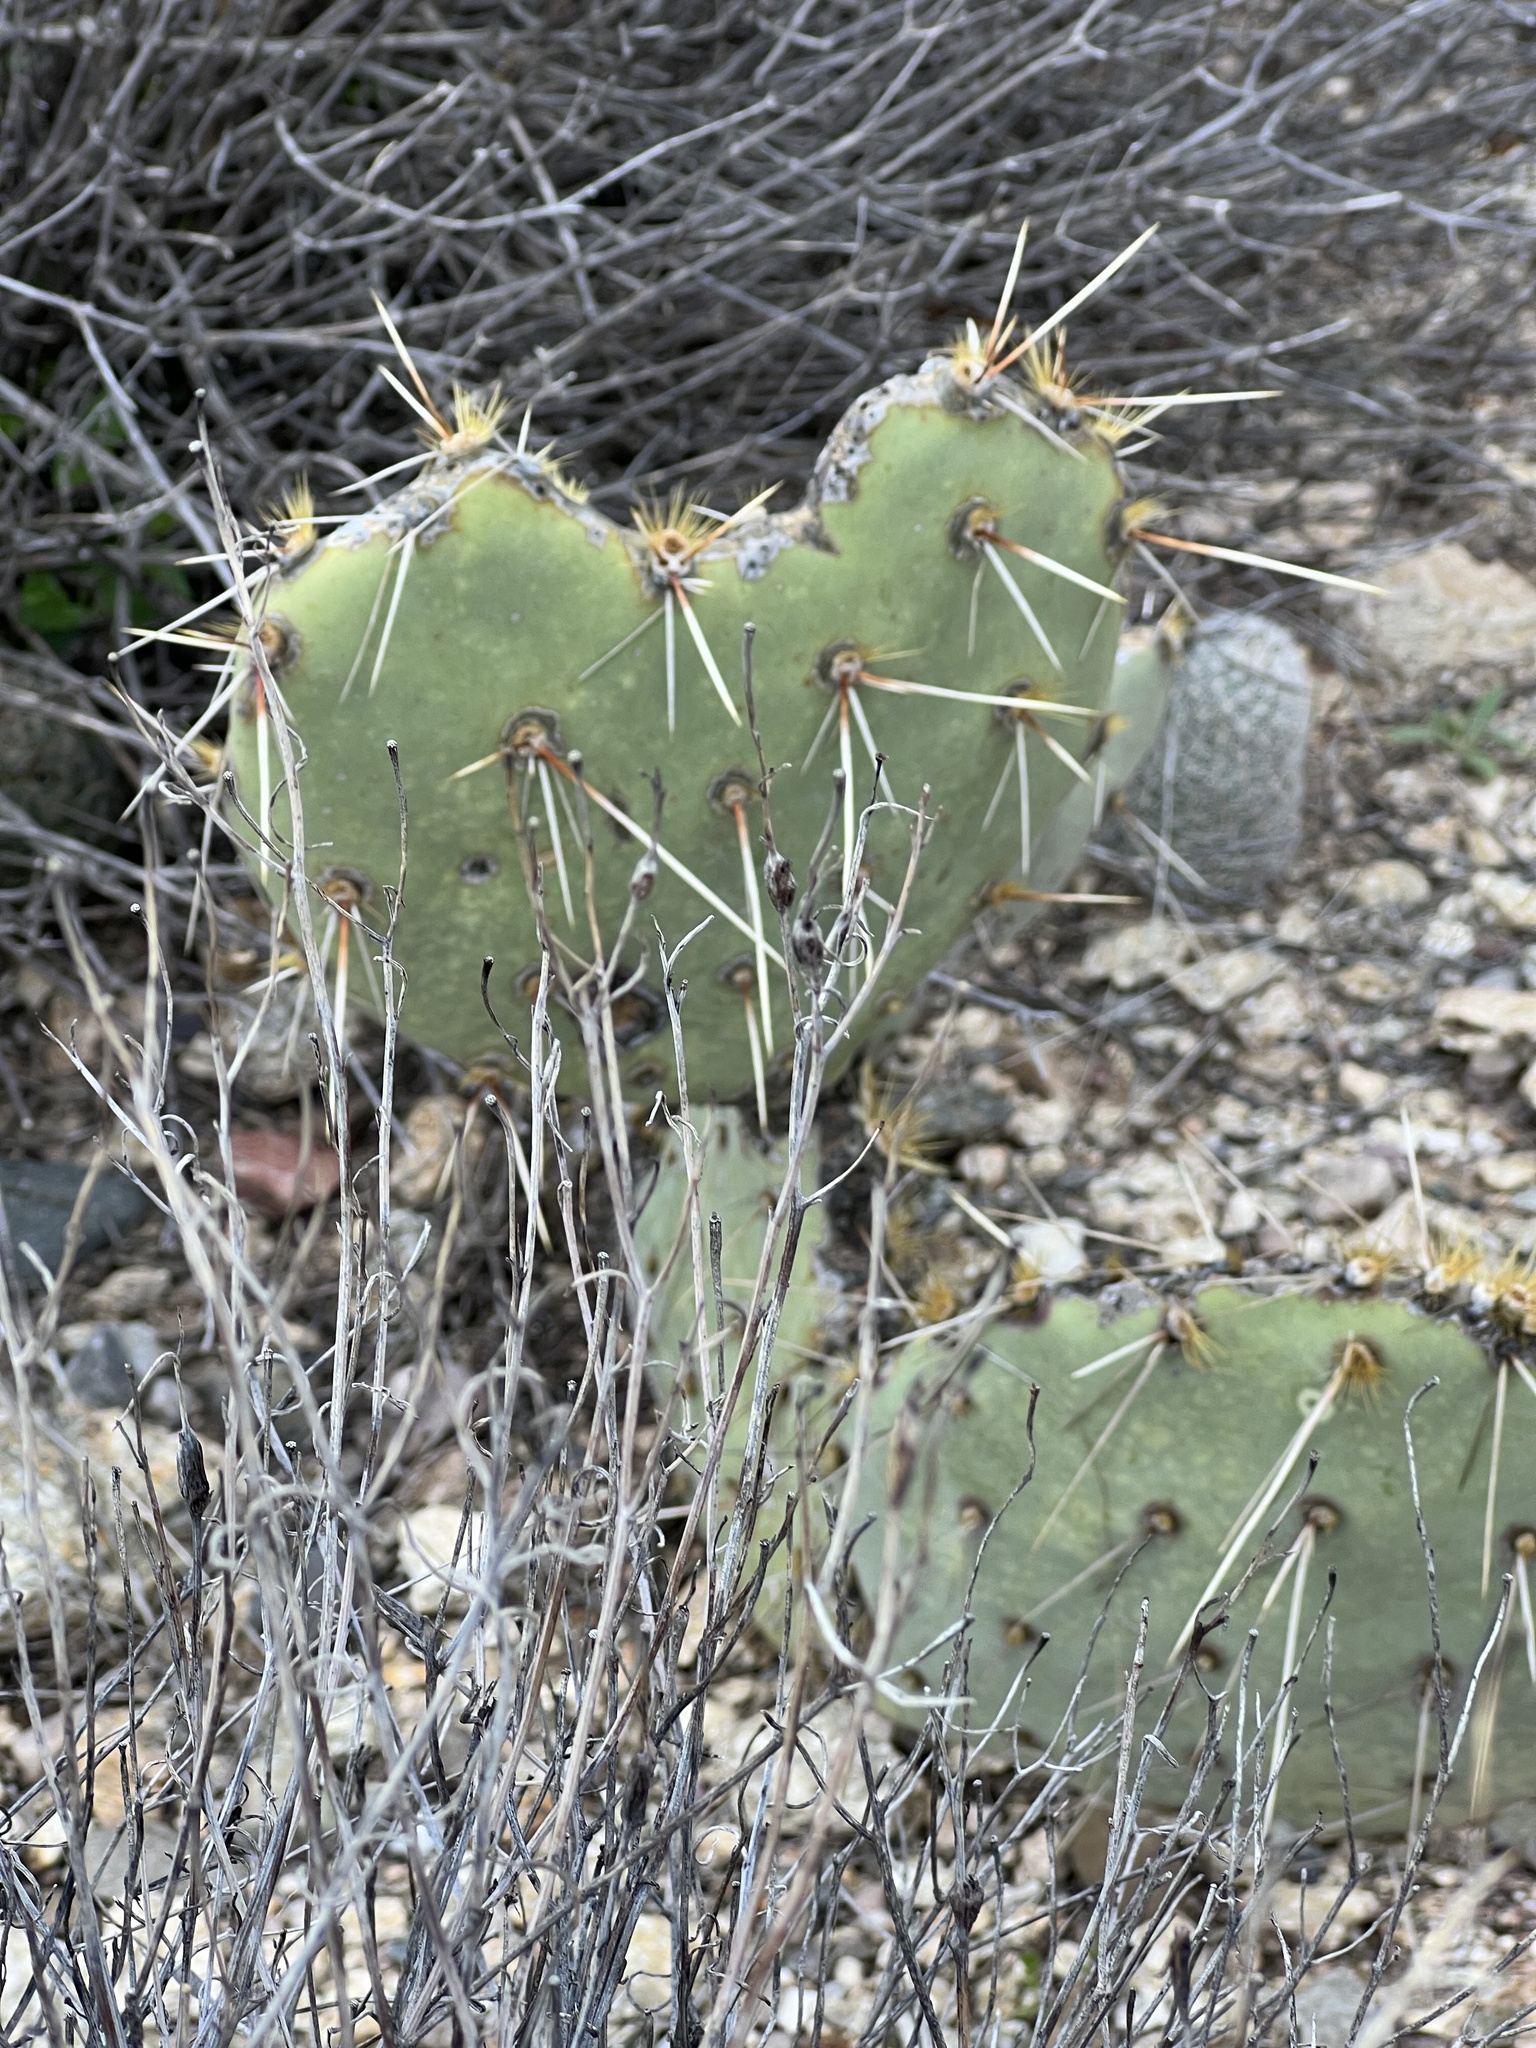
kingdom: Plantae
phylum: Tracheophyta
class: Magnoliopsida
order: Caryophyllales
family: Cactaceae
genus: Opuntia
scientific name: Opuntia engelmannii
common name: Cactus-apple
